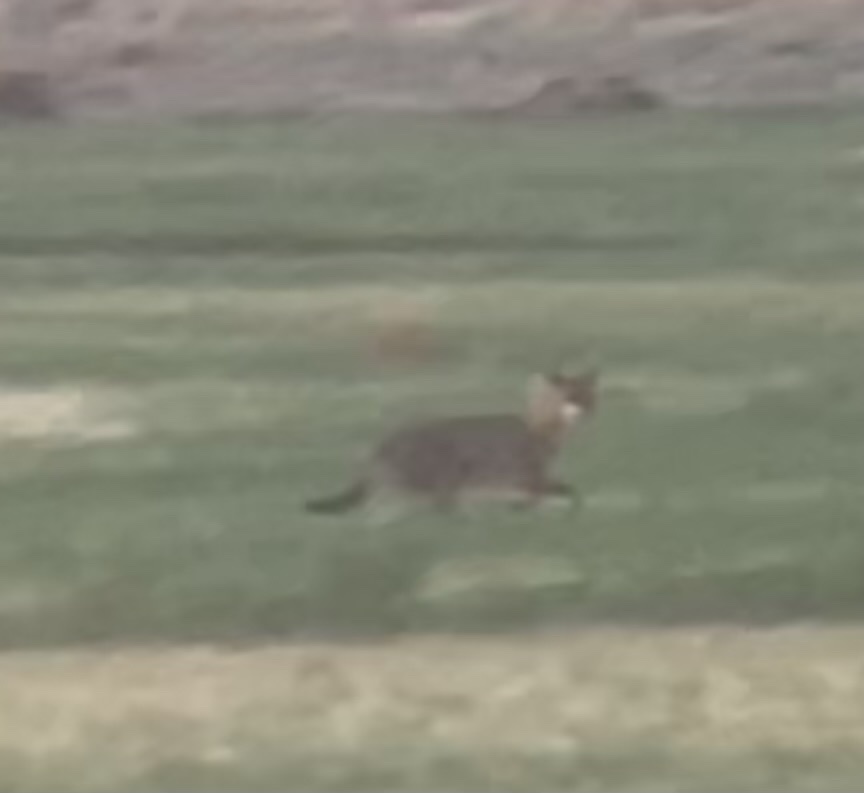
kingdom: Animalia
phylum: Chordata
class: Mammalia
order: Carnivora
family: Canidae
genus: Canis
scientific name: Canis aureus
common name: Golden jackal
